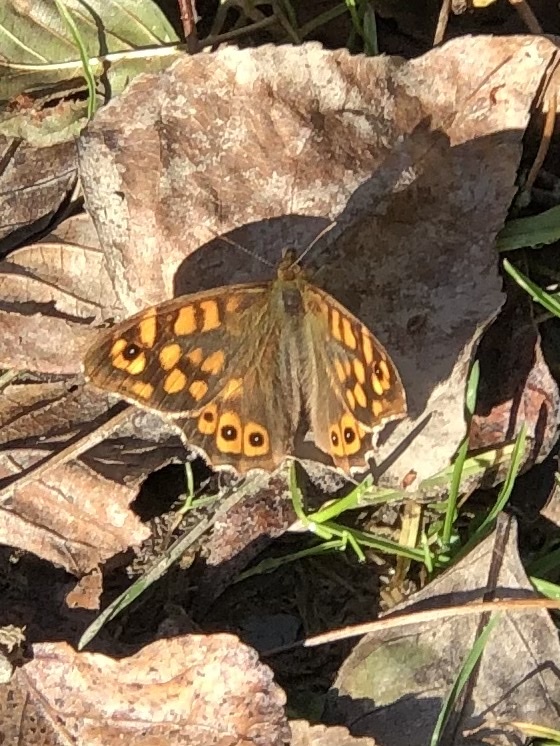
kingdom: Animalia
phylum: Arthropoda
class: Insecta
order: Lepidoptera
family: Nymphalidae
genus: Pararge
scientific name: Pararge aegeria
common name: Speckled wood
